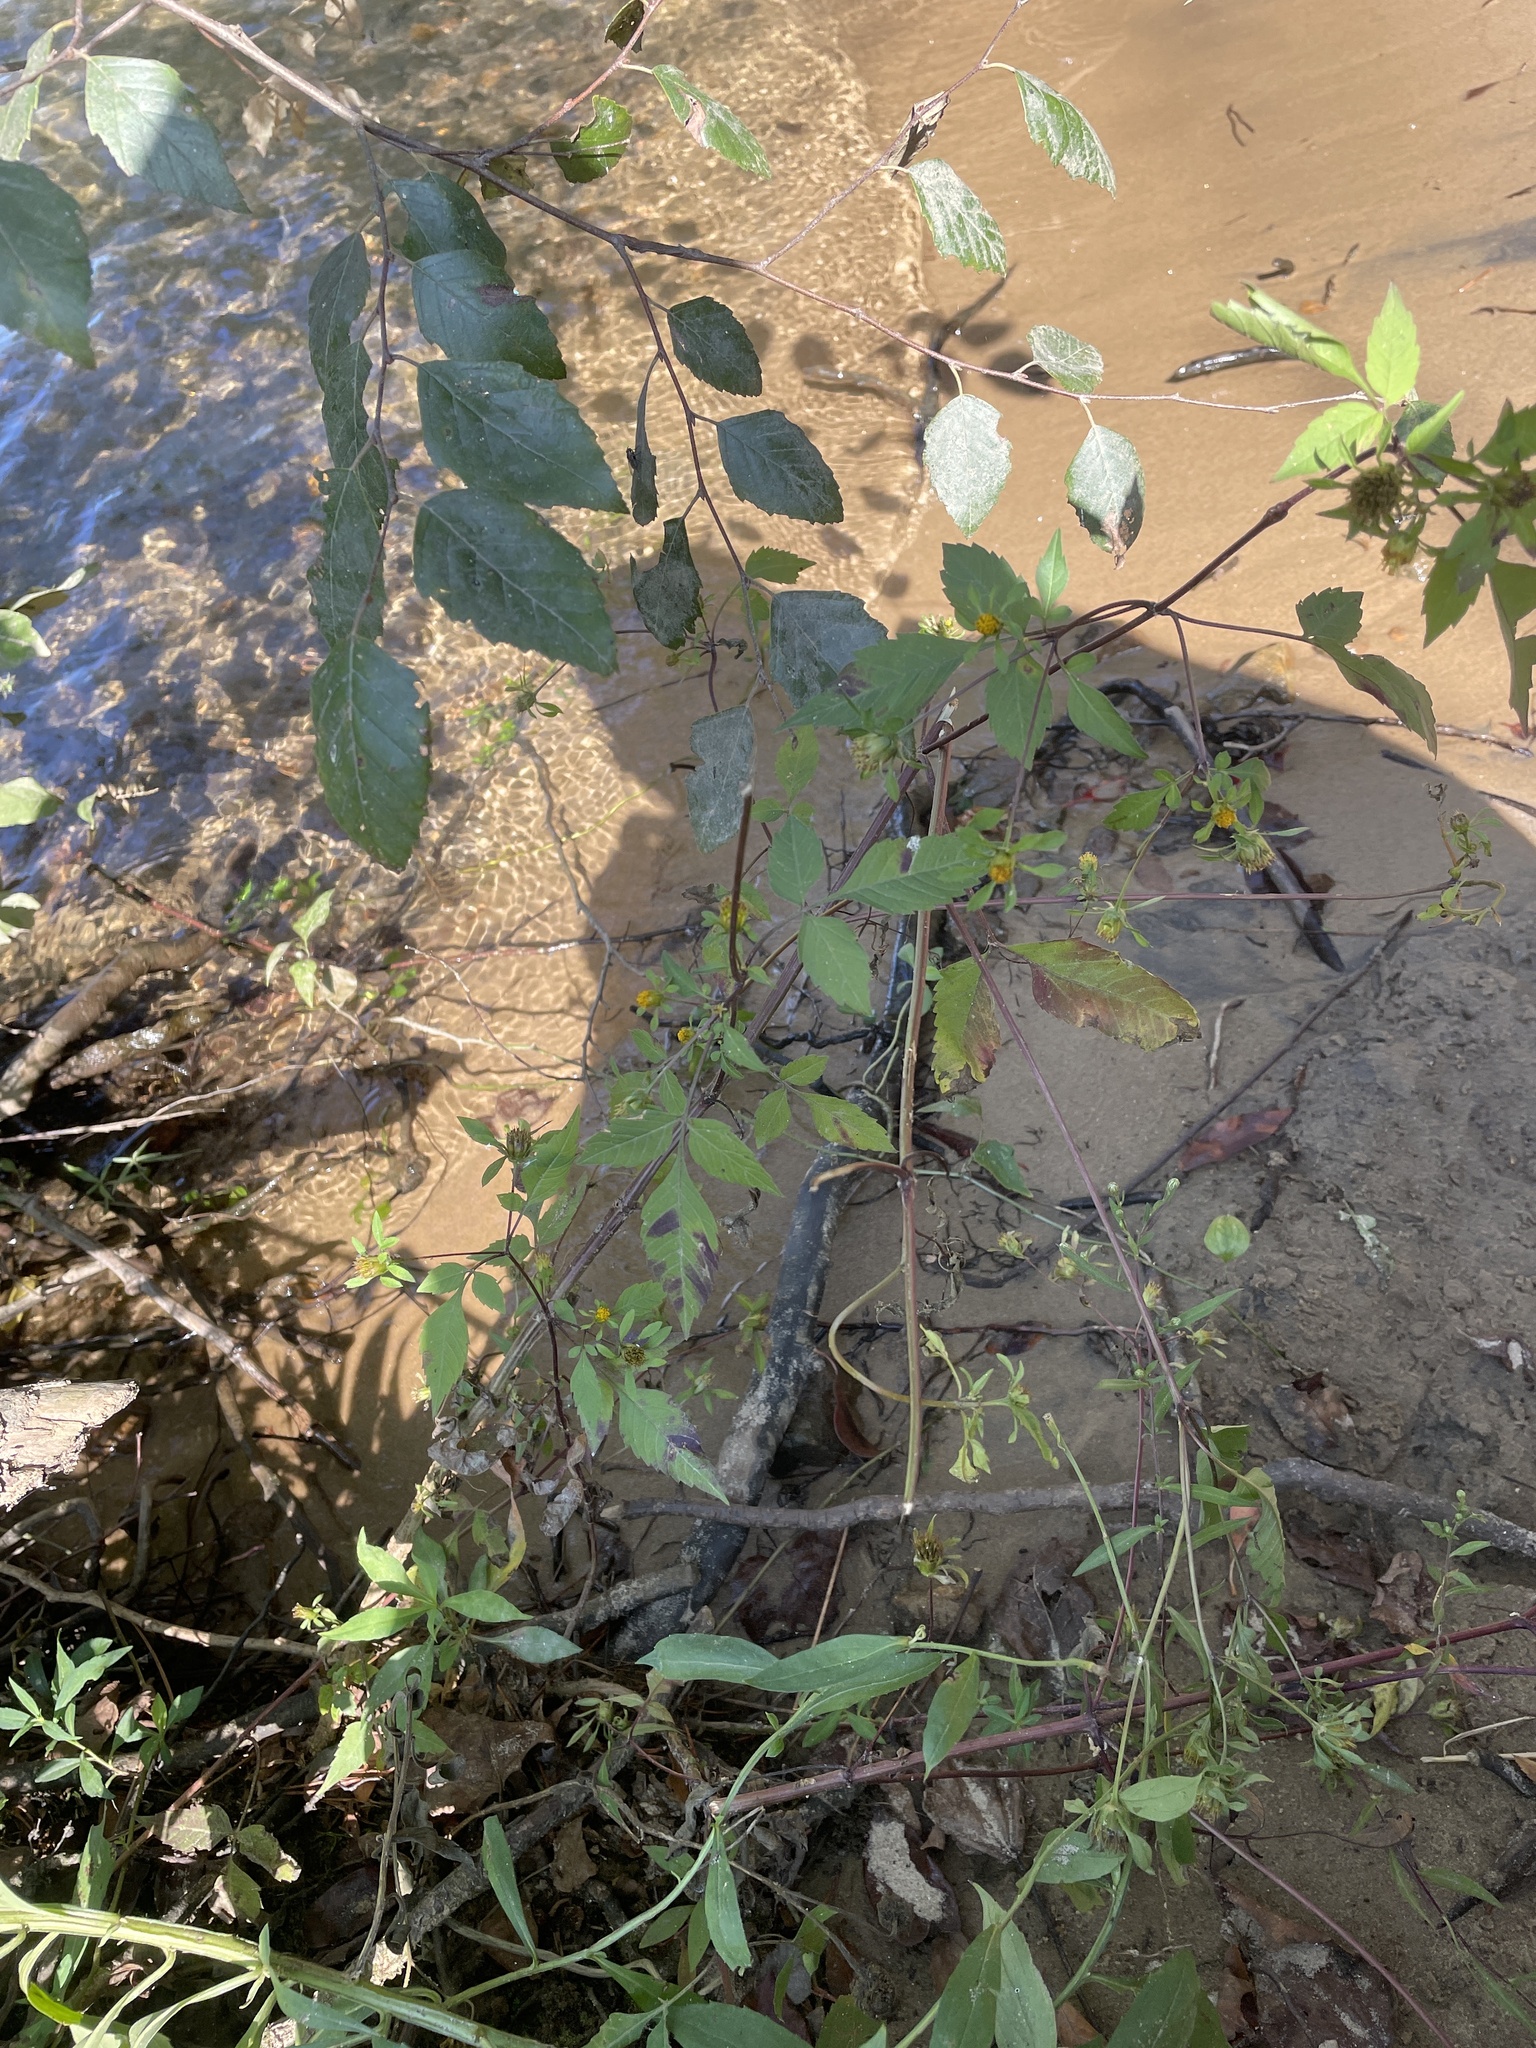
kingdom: Plantae
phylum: Tracheophyta
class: Magnoliopsida
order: Asterales
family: Asteraceae
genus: Bidens
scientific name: Bidens frondosa
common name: Beggarticks
